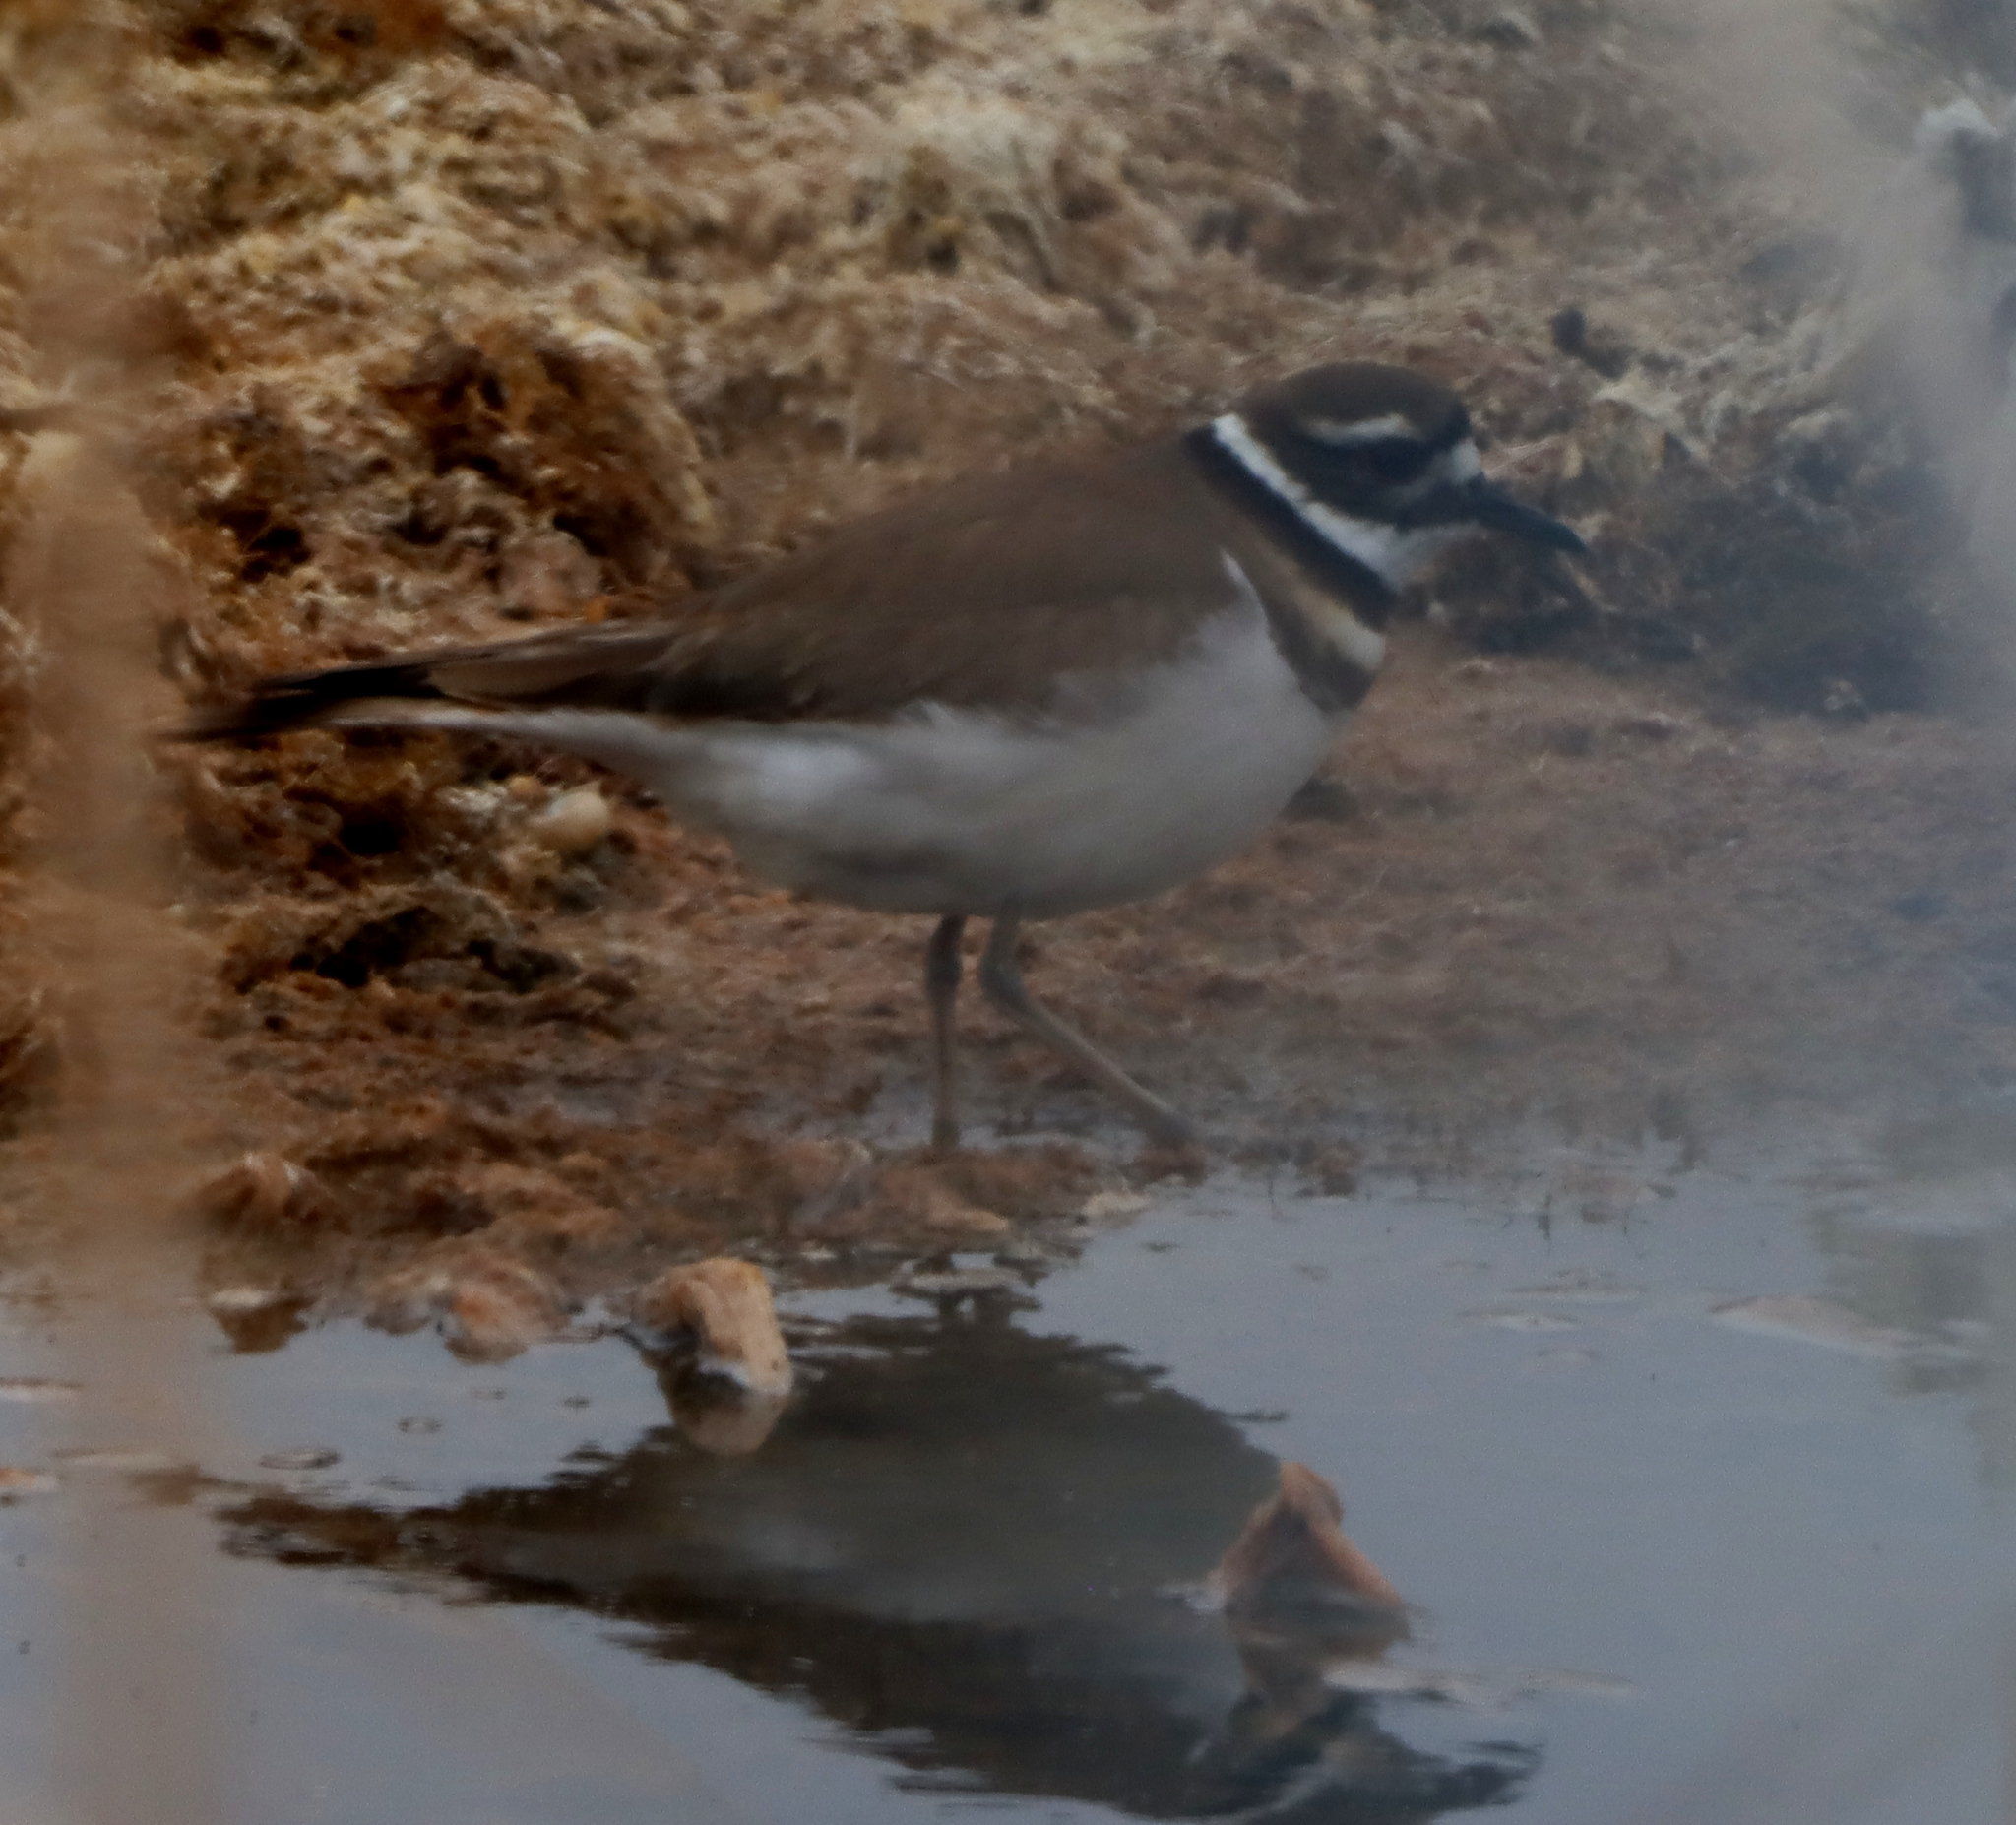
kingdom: Animalia
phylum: Chordata
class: Aves
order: Charadriiformes
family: Charadriidae
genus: Charadrius
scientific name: Charadrius vociferus
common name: Killdeer
